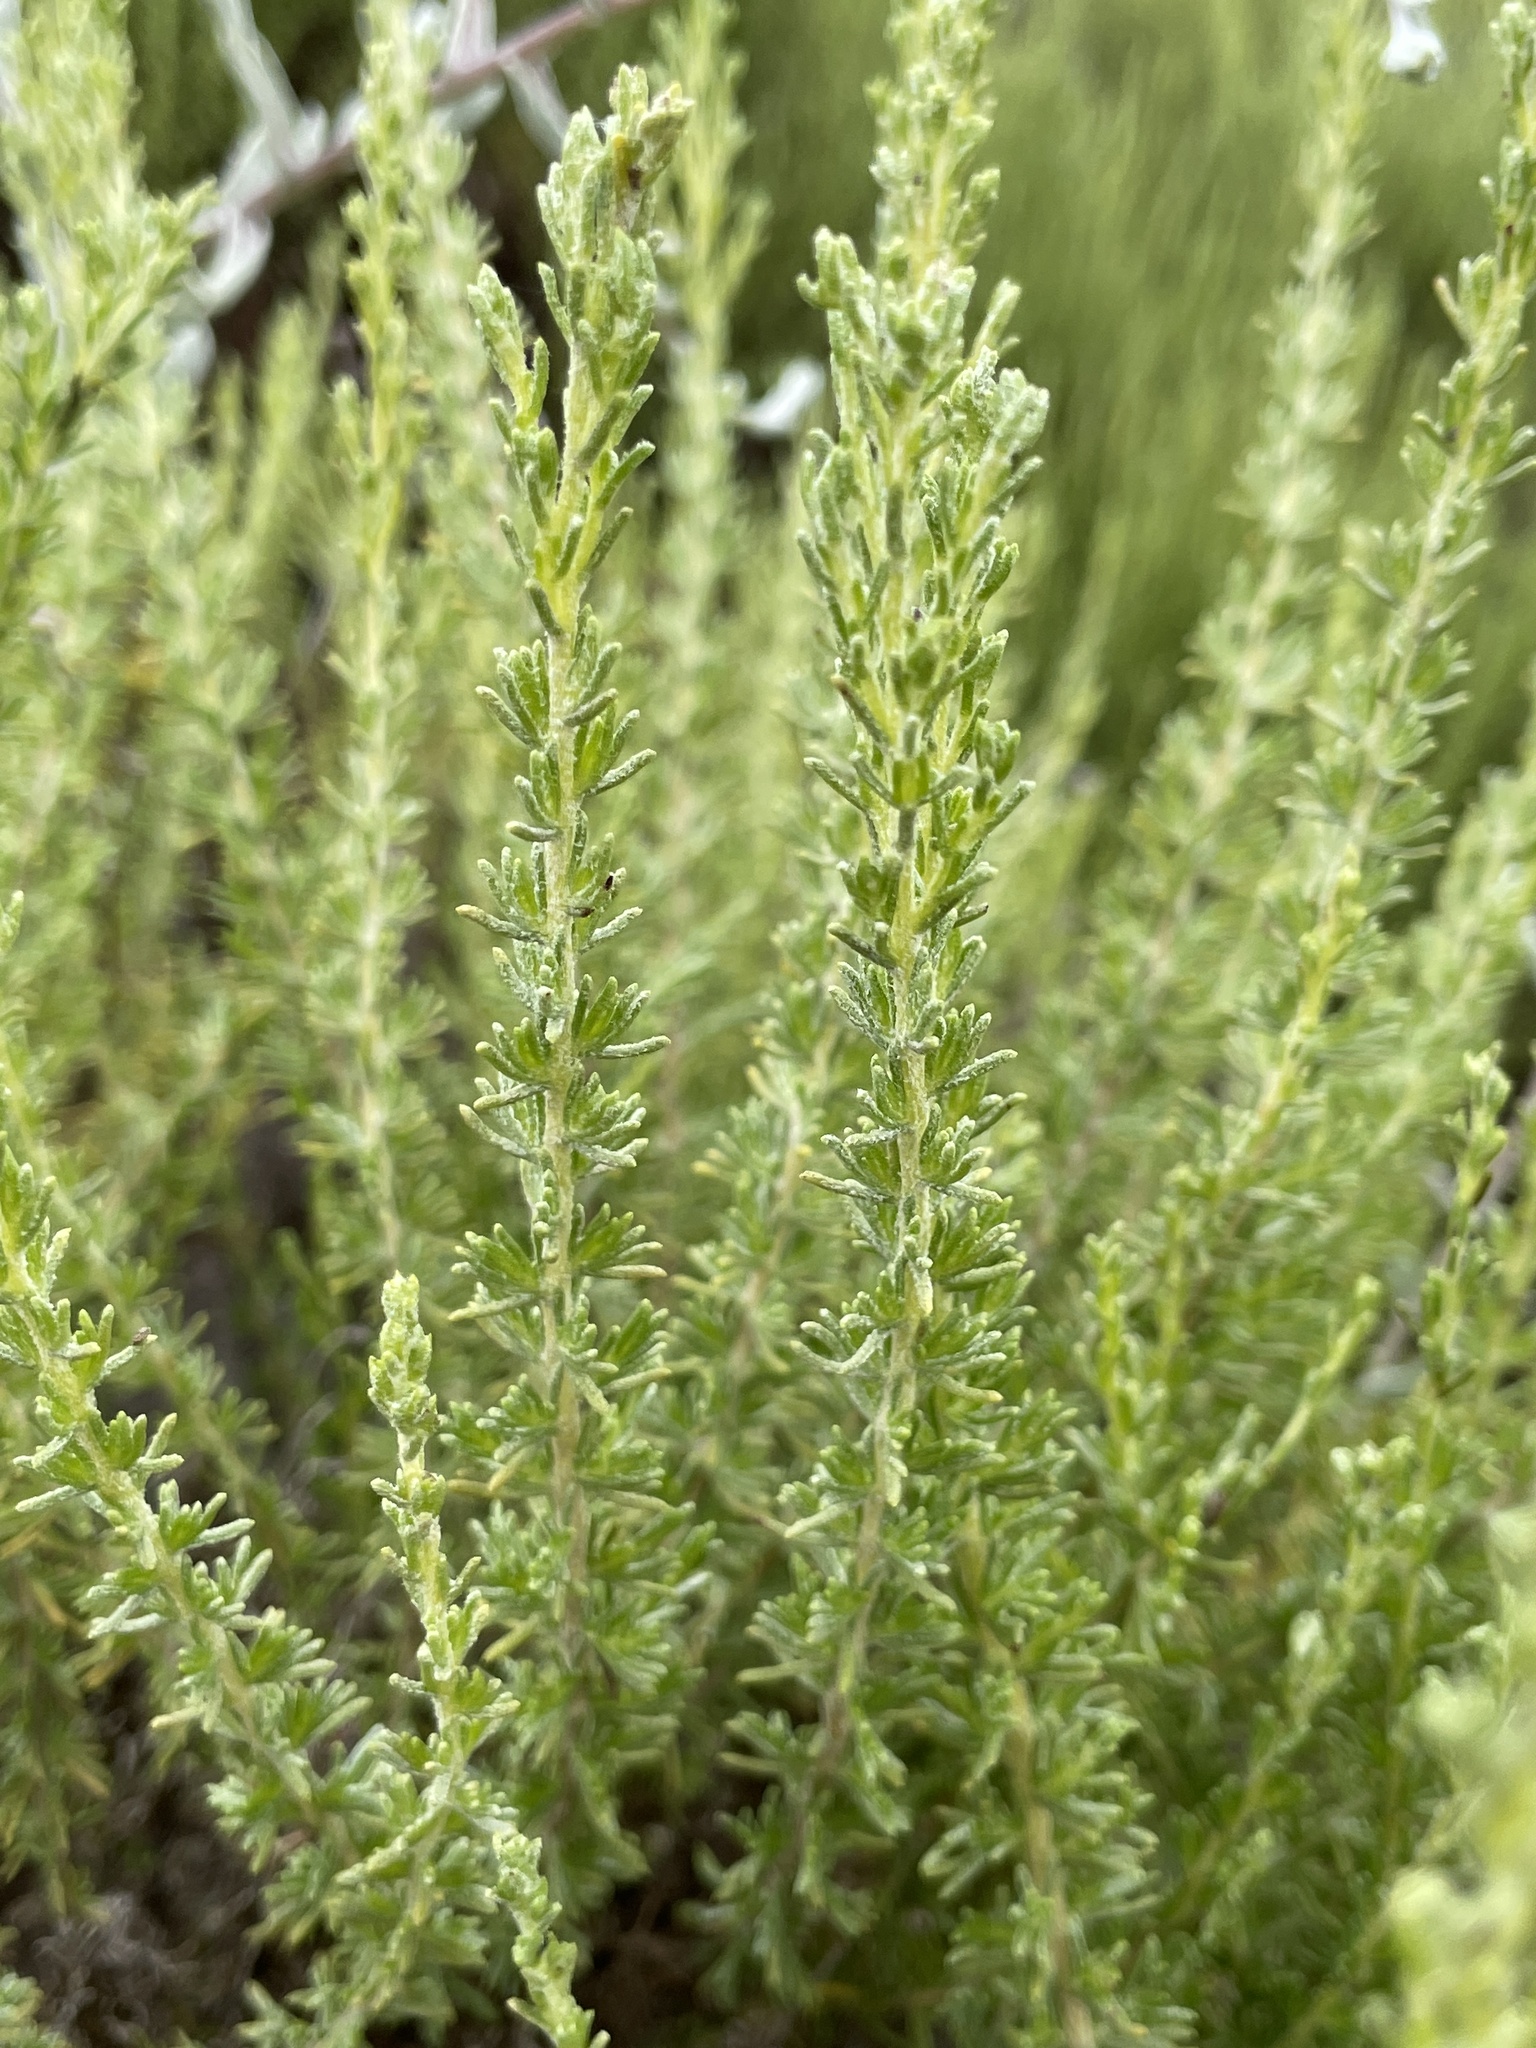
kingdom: Plantae
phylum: Tracheophyta
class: Magnoliopsida
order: Asterales
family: Asteraceae
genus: Ericameria
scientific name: Ericameria ericoides
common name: California goldenbush
